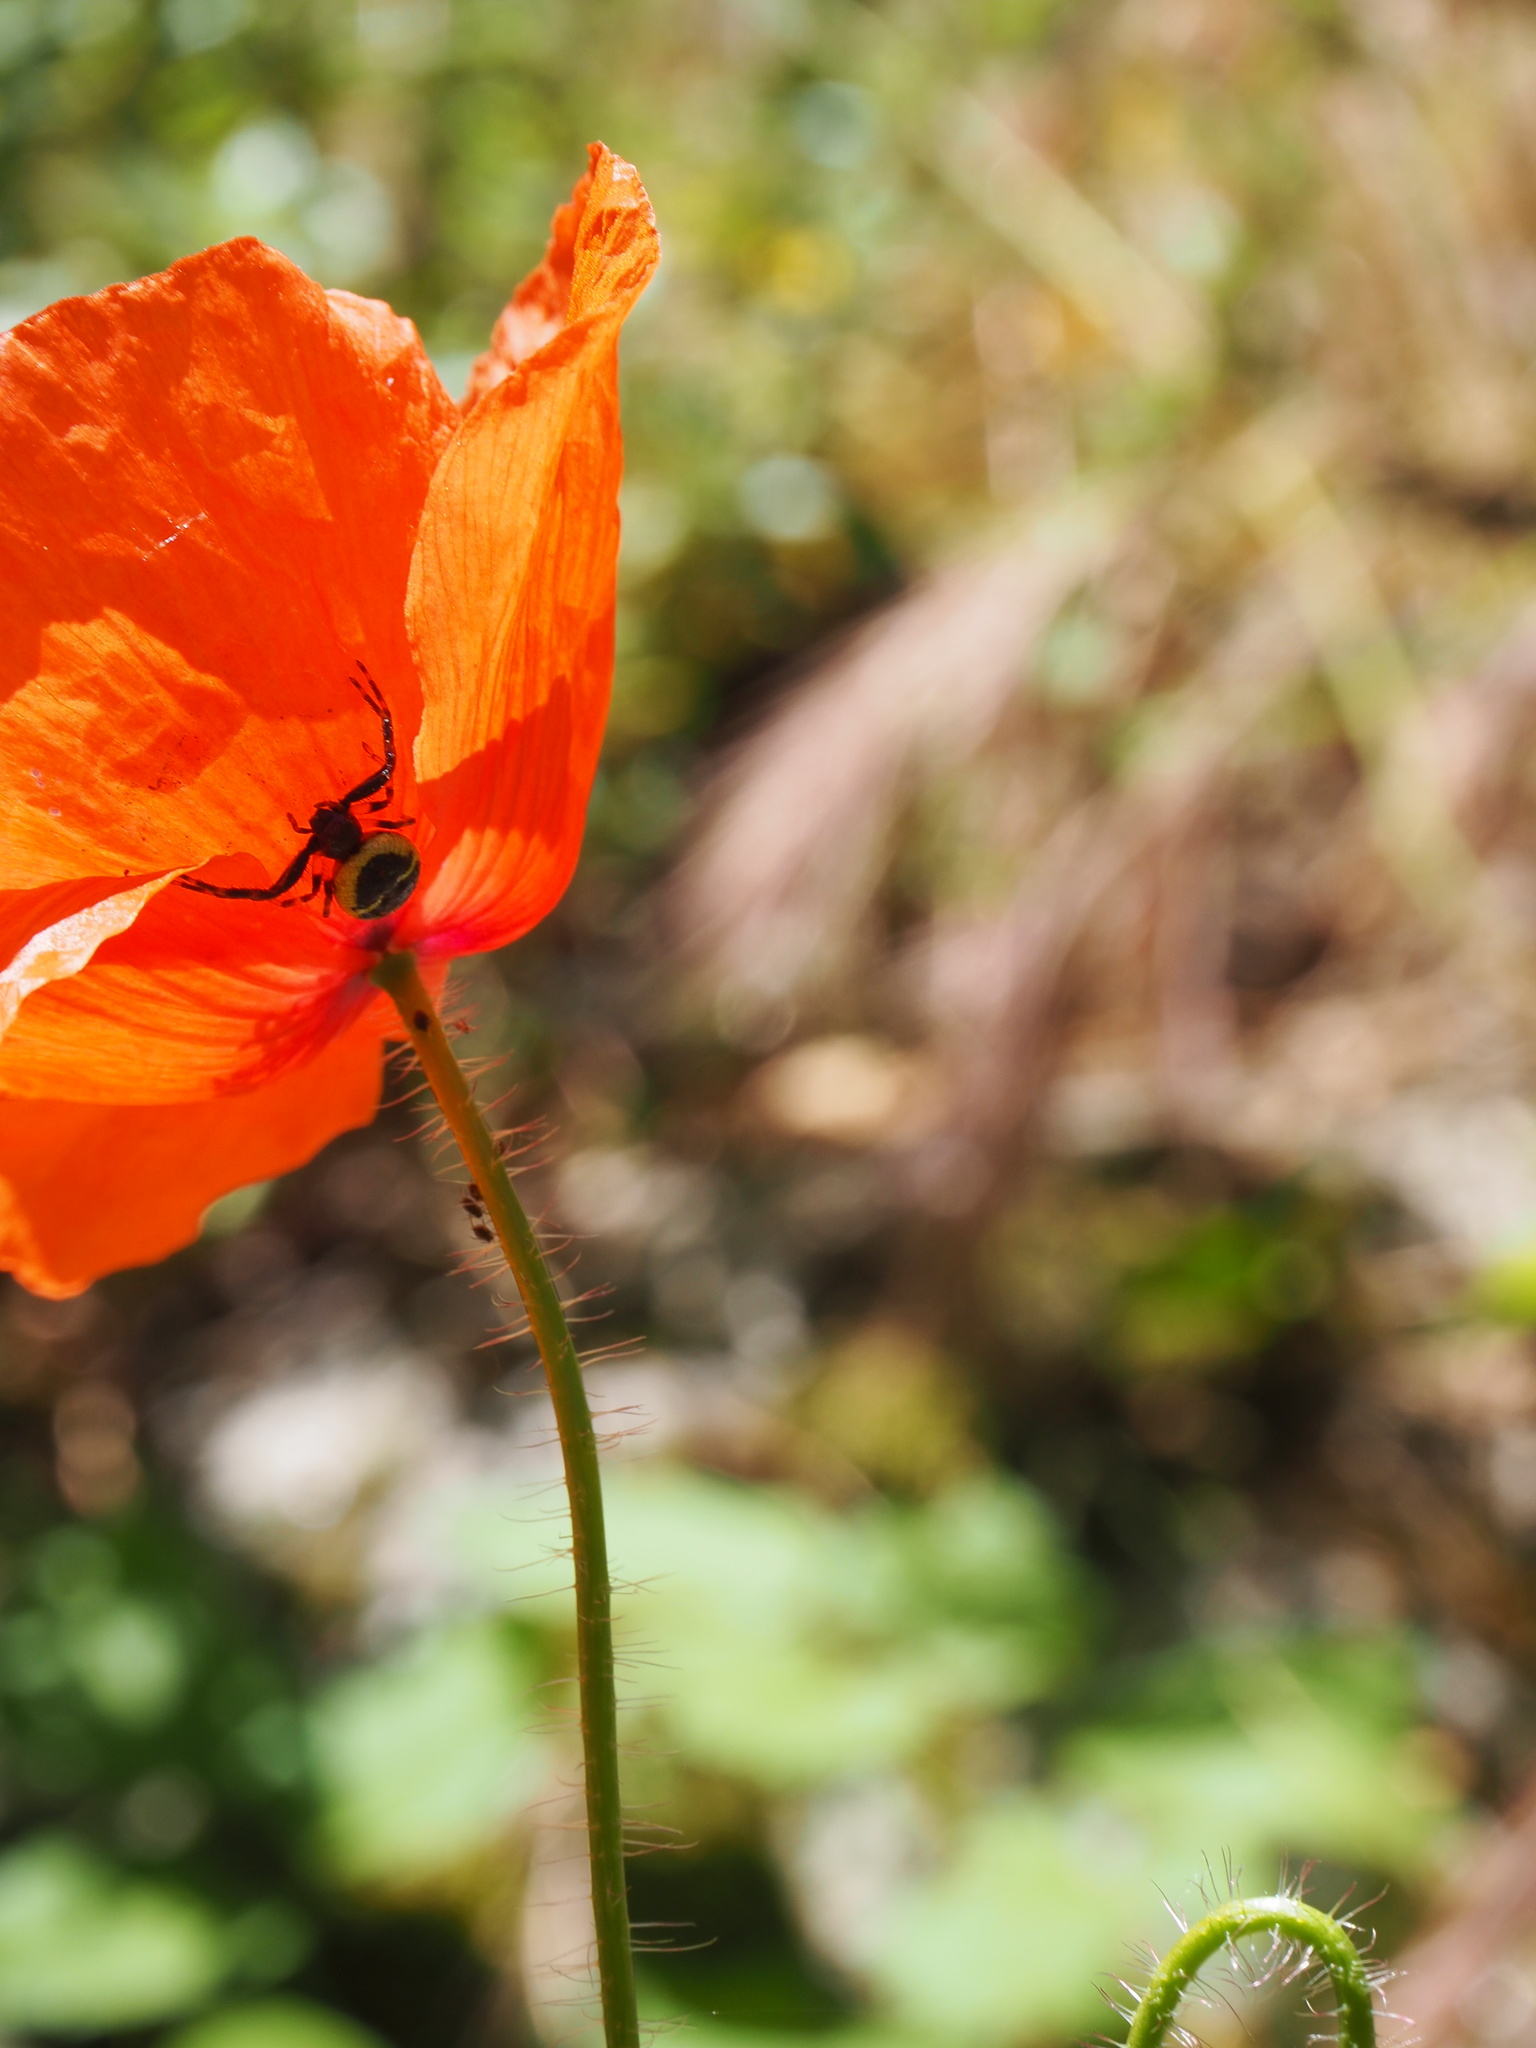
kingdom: Animalia
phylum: Arthropoda
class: Arachnida
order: Araneae
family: Thomisidae
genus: Synema
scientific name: Synema globosum
